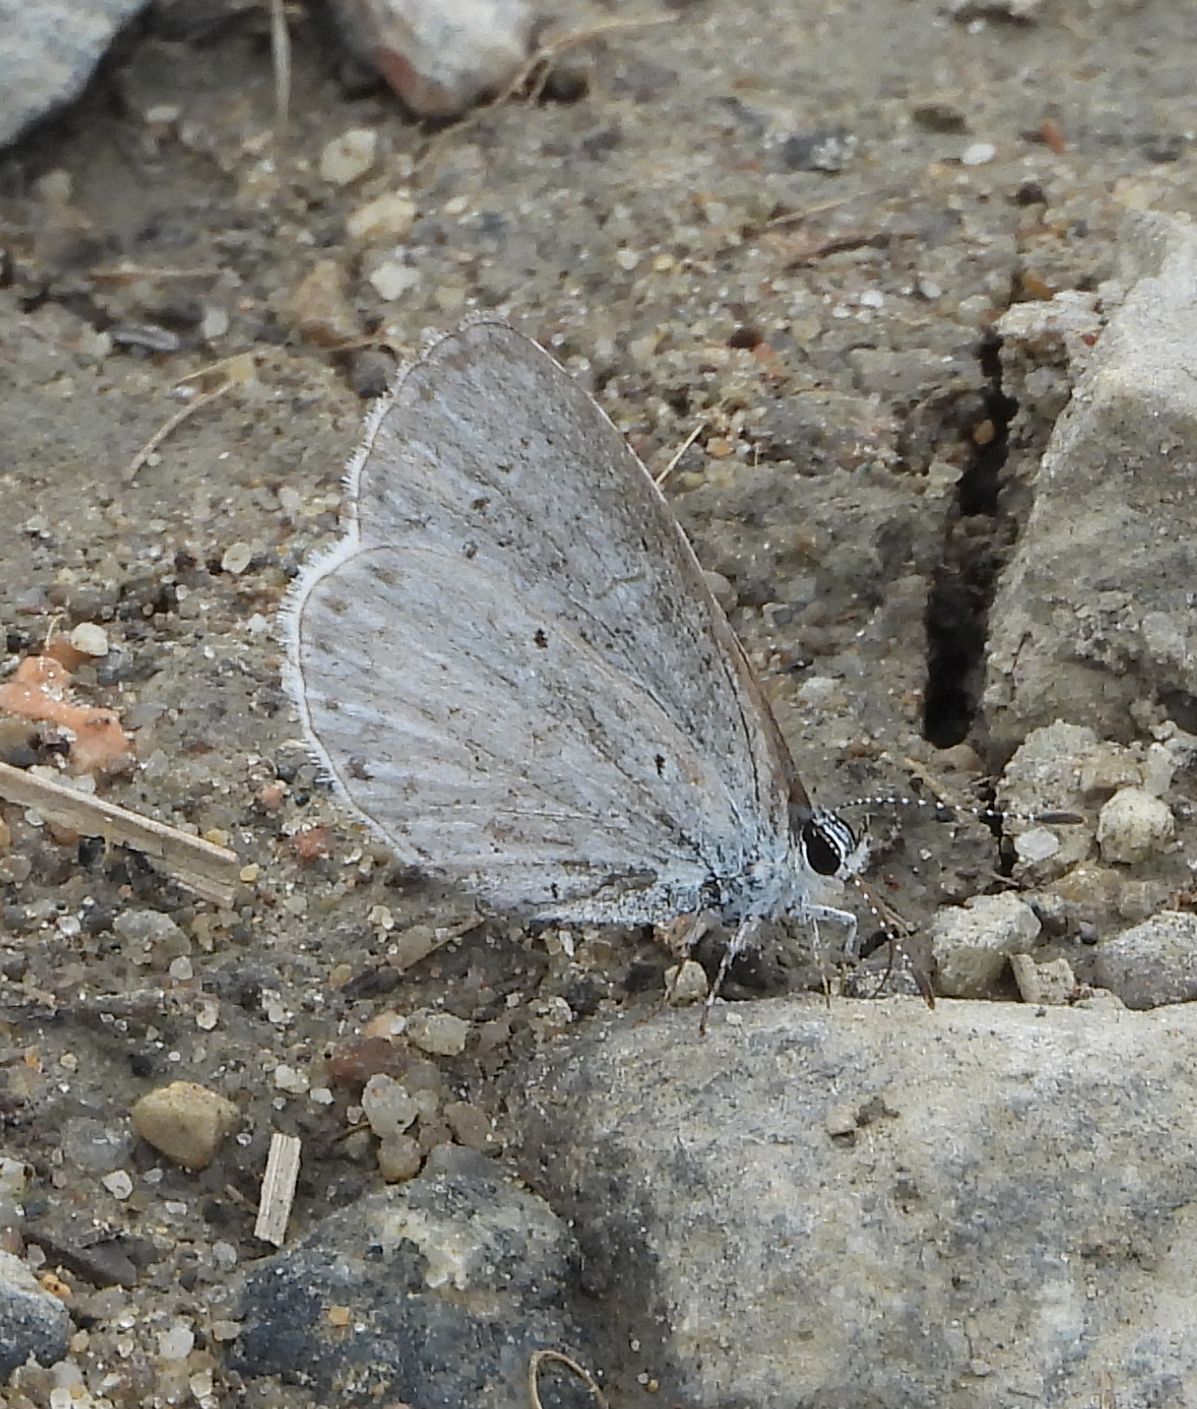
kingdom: Animalia
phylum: Arthropoda
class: Insecta
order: Lepidoptera
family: Lycaenidae
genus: Celastrina
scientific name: Celastrina lucia
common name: Lucia azure
